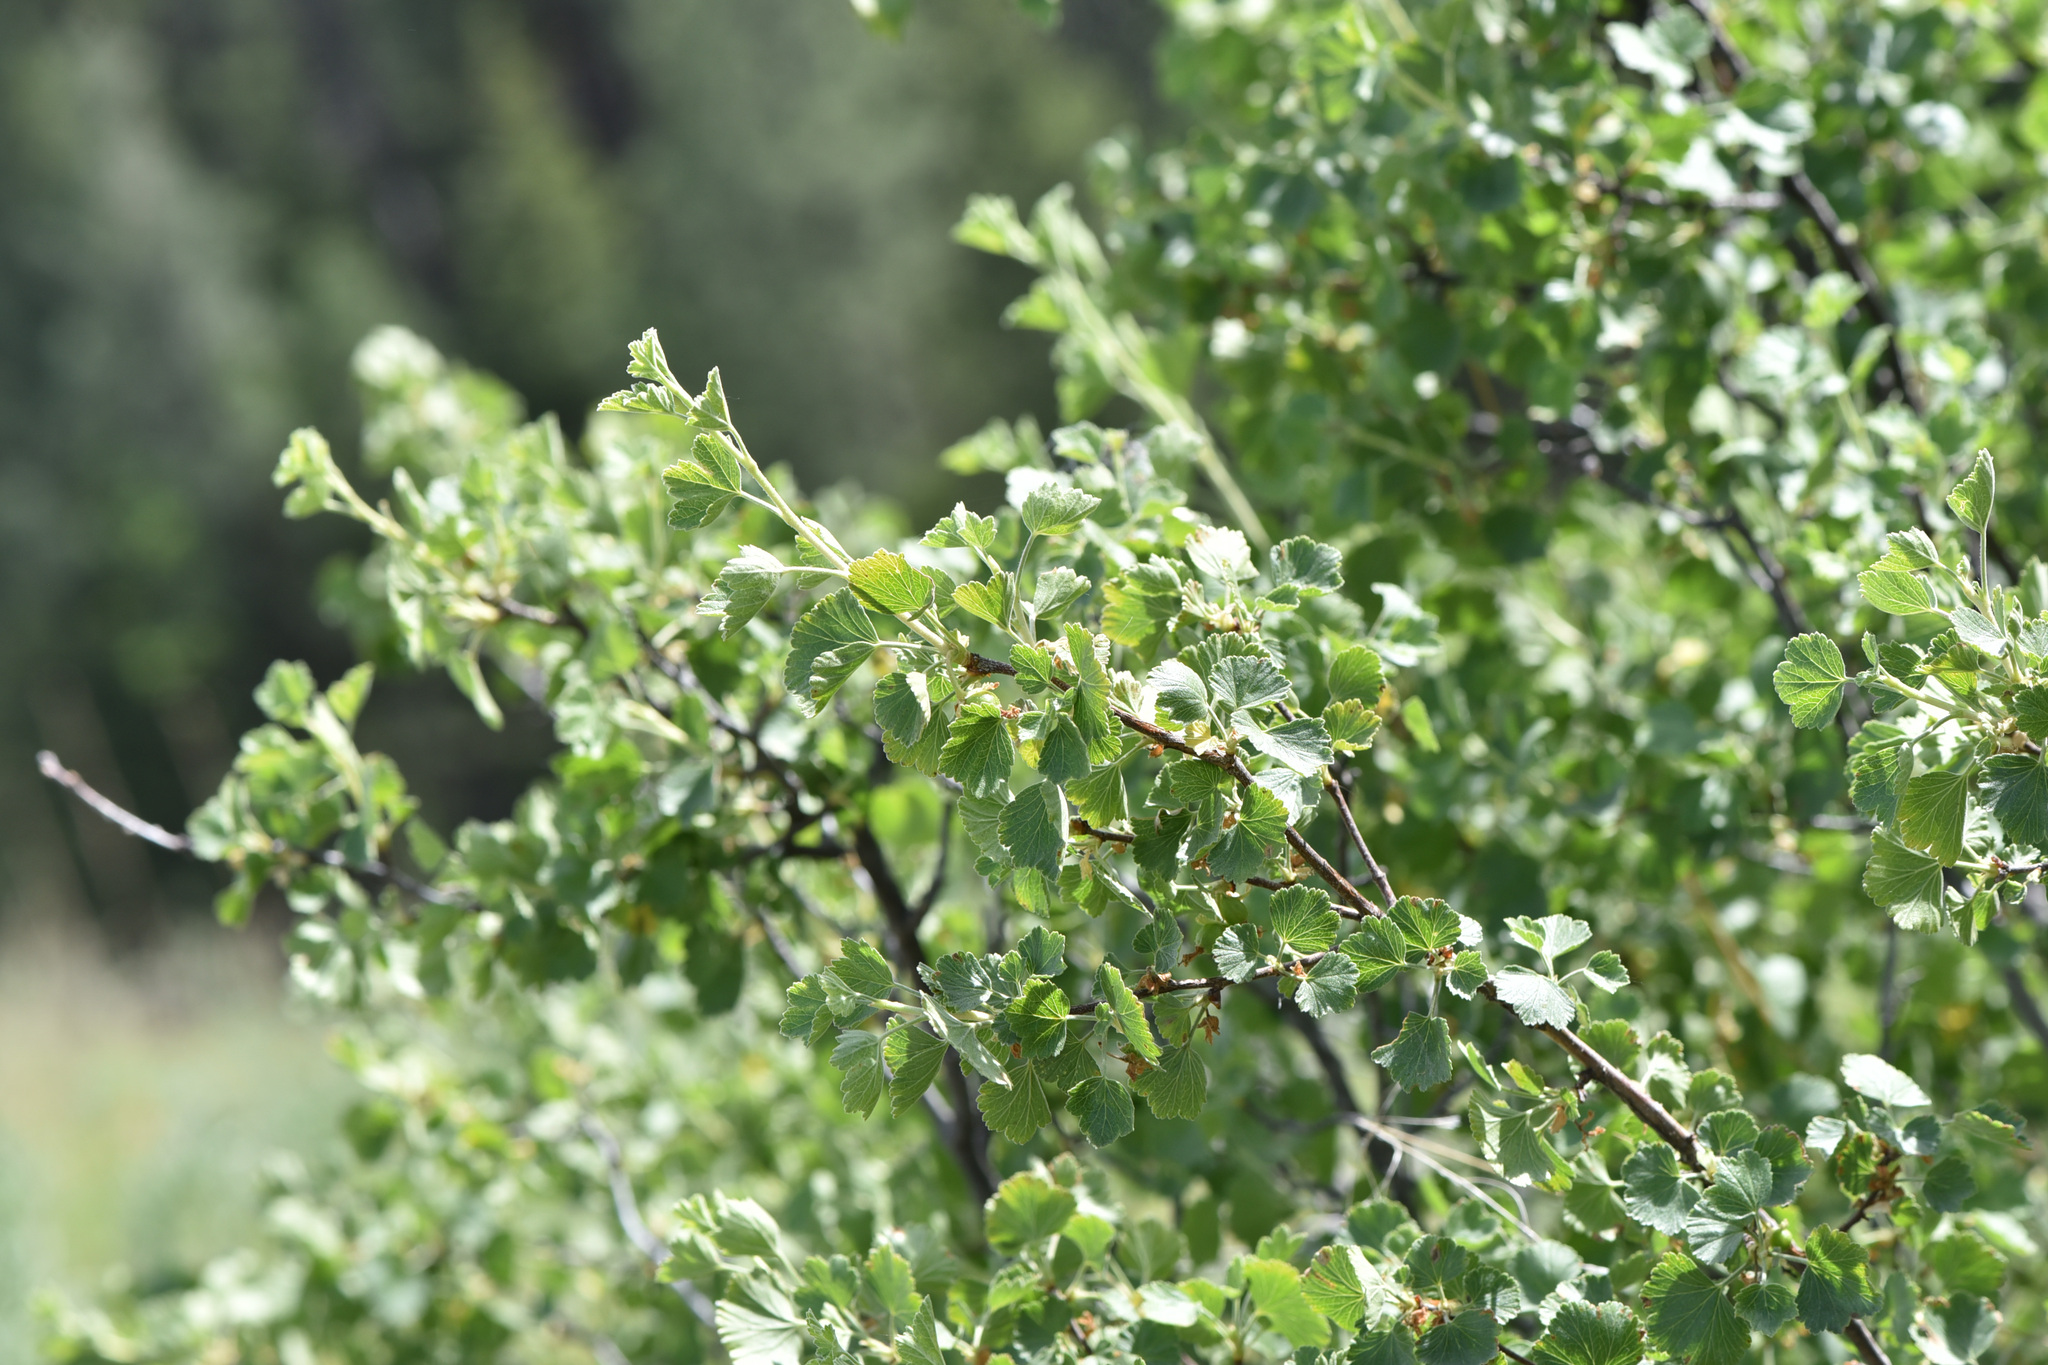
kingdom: Plantae
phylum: Tracheophyta
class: Magnoliopsida
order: Saxifragales
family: Grossulariaceae
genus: Ribes
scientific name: Ribes cereum
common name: Wax currant
